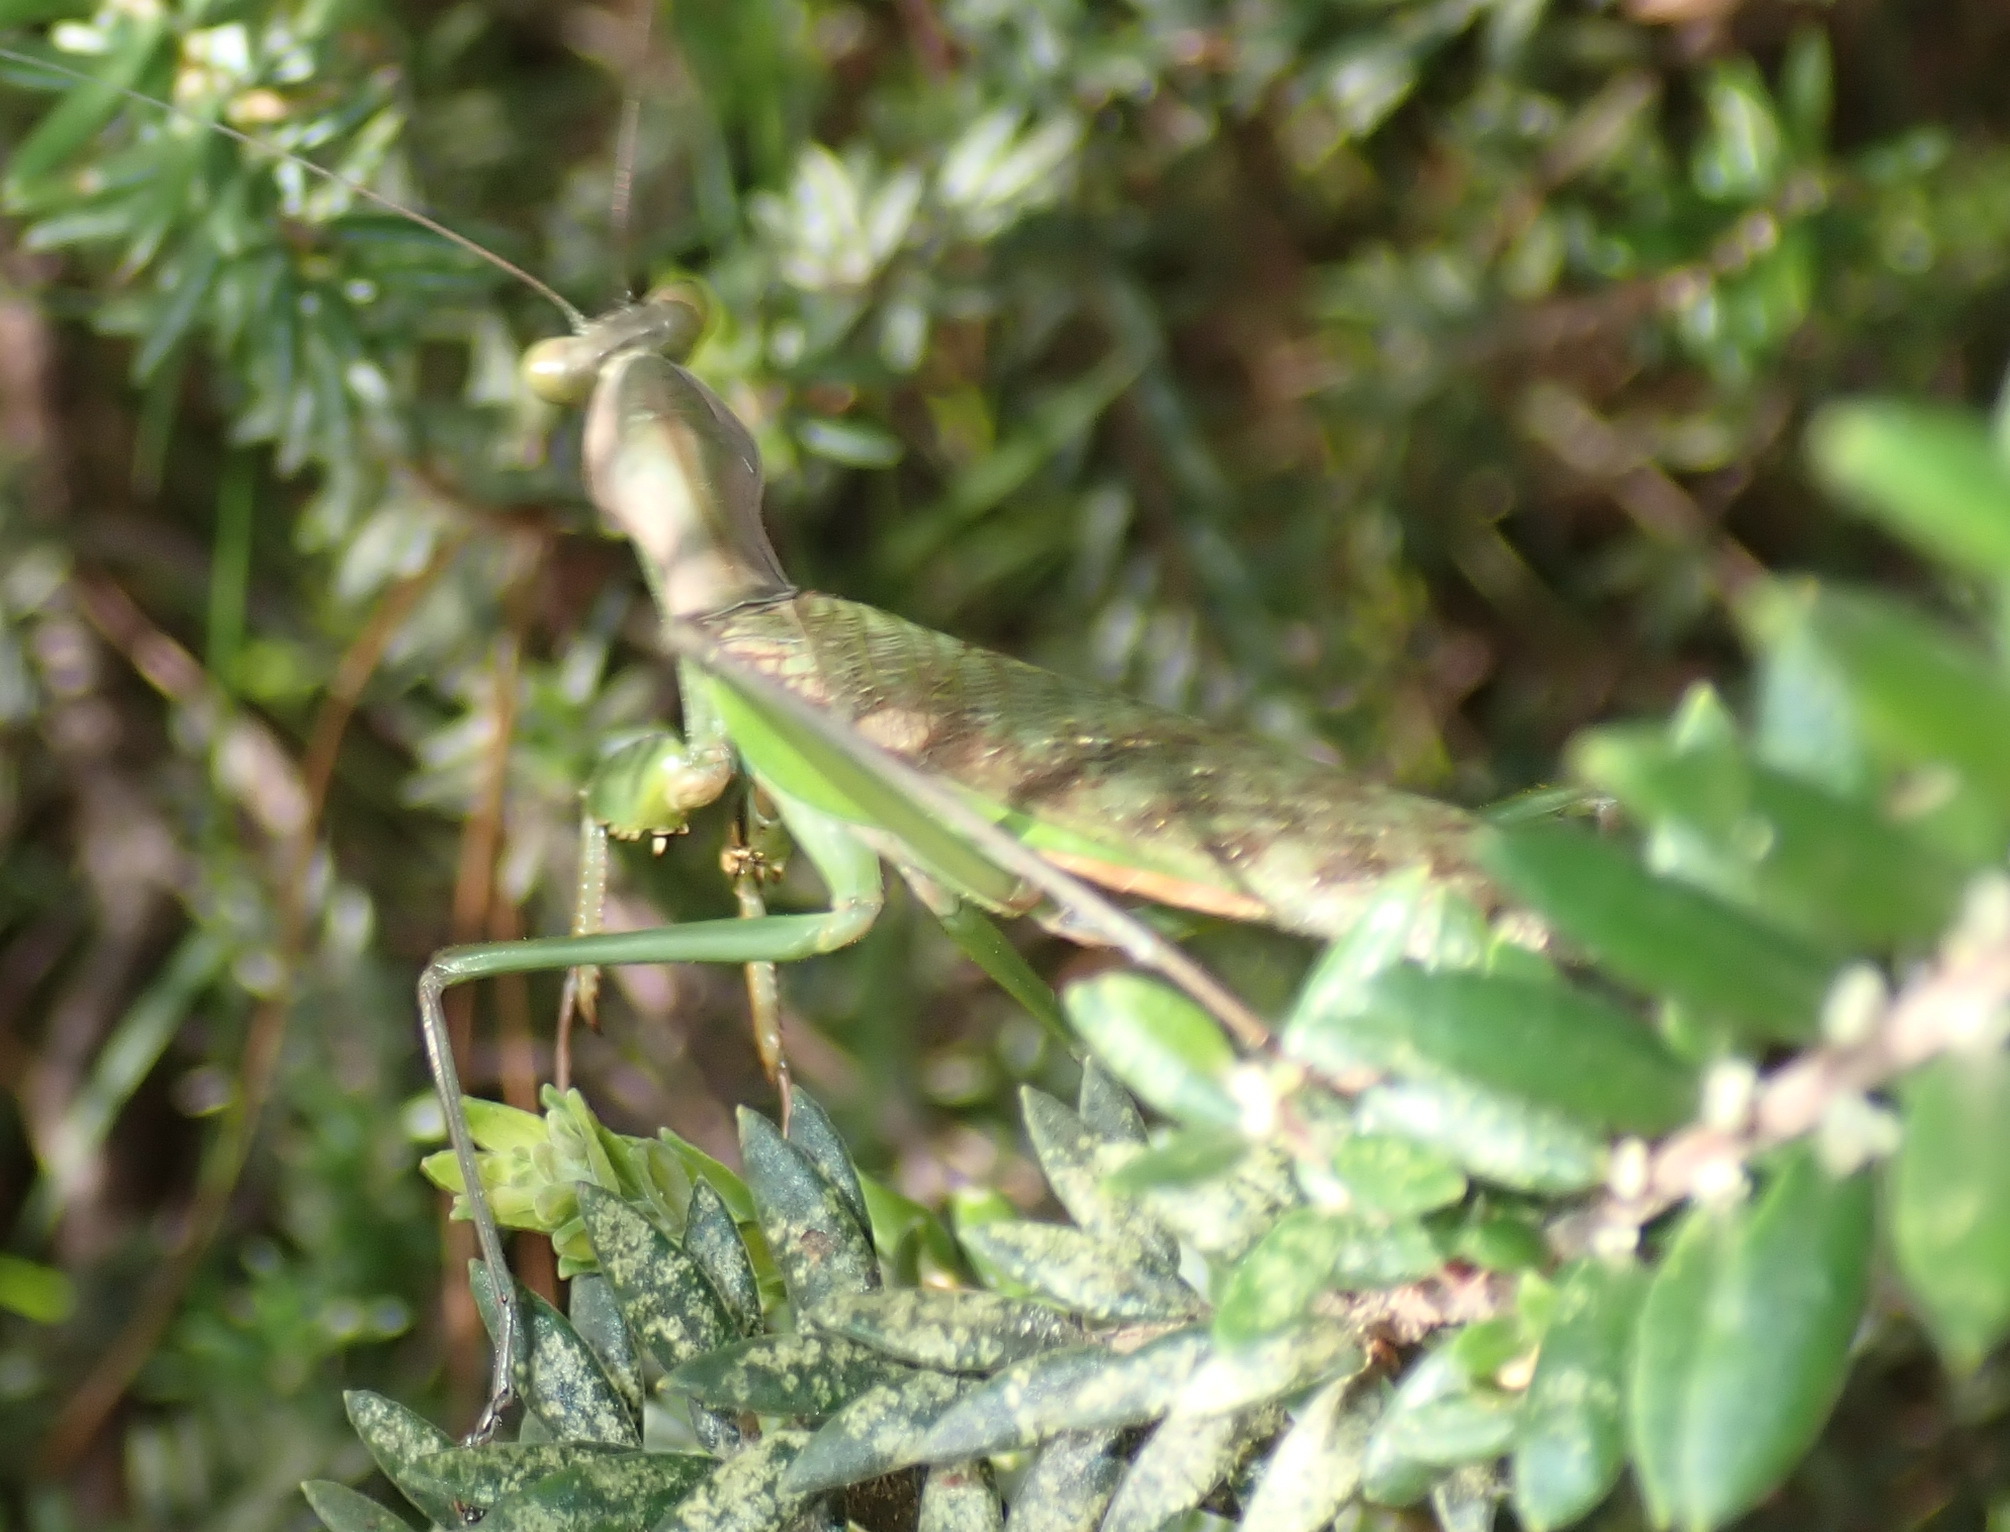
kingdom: Animalia
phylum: Arthropoda
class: Insecta
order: Mantodea
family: Mantidae
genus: Polyspilota
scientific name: Polyspilota aeruginosa
